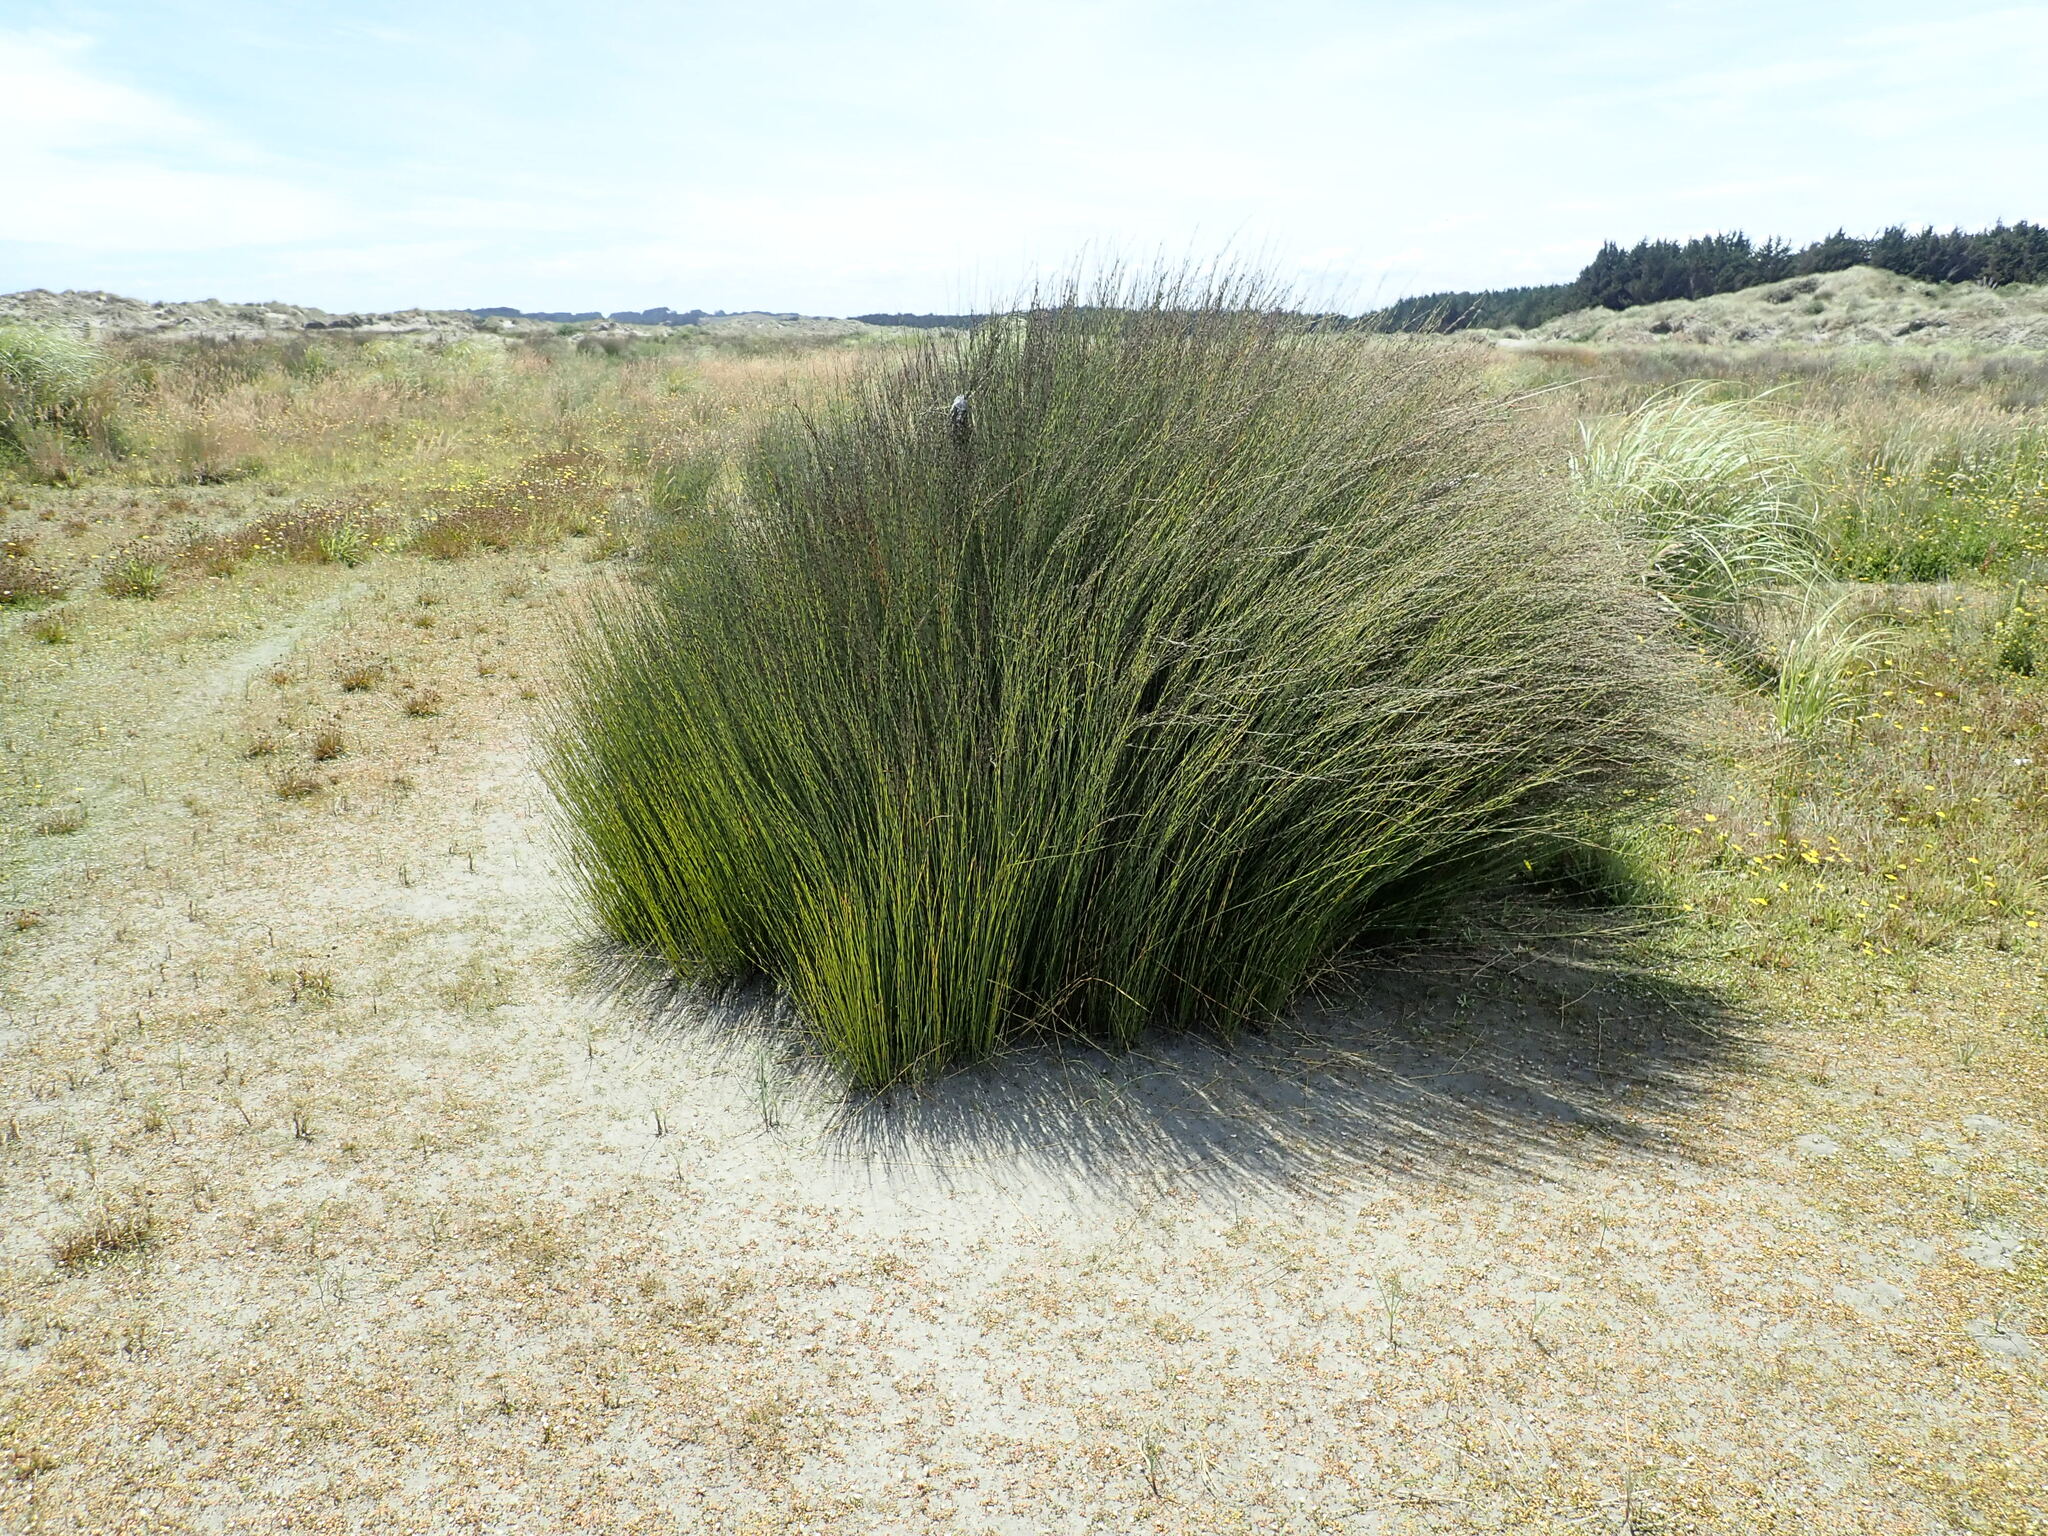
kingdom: Plantae
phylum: Tracheophyta
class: Liliopsida
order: Poales
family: Restionaceae
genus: Apodasmia
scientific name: Apodasmia similis
